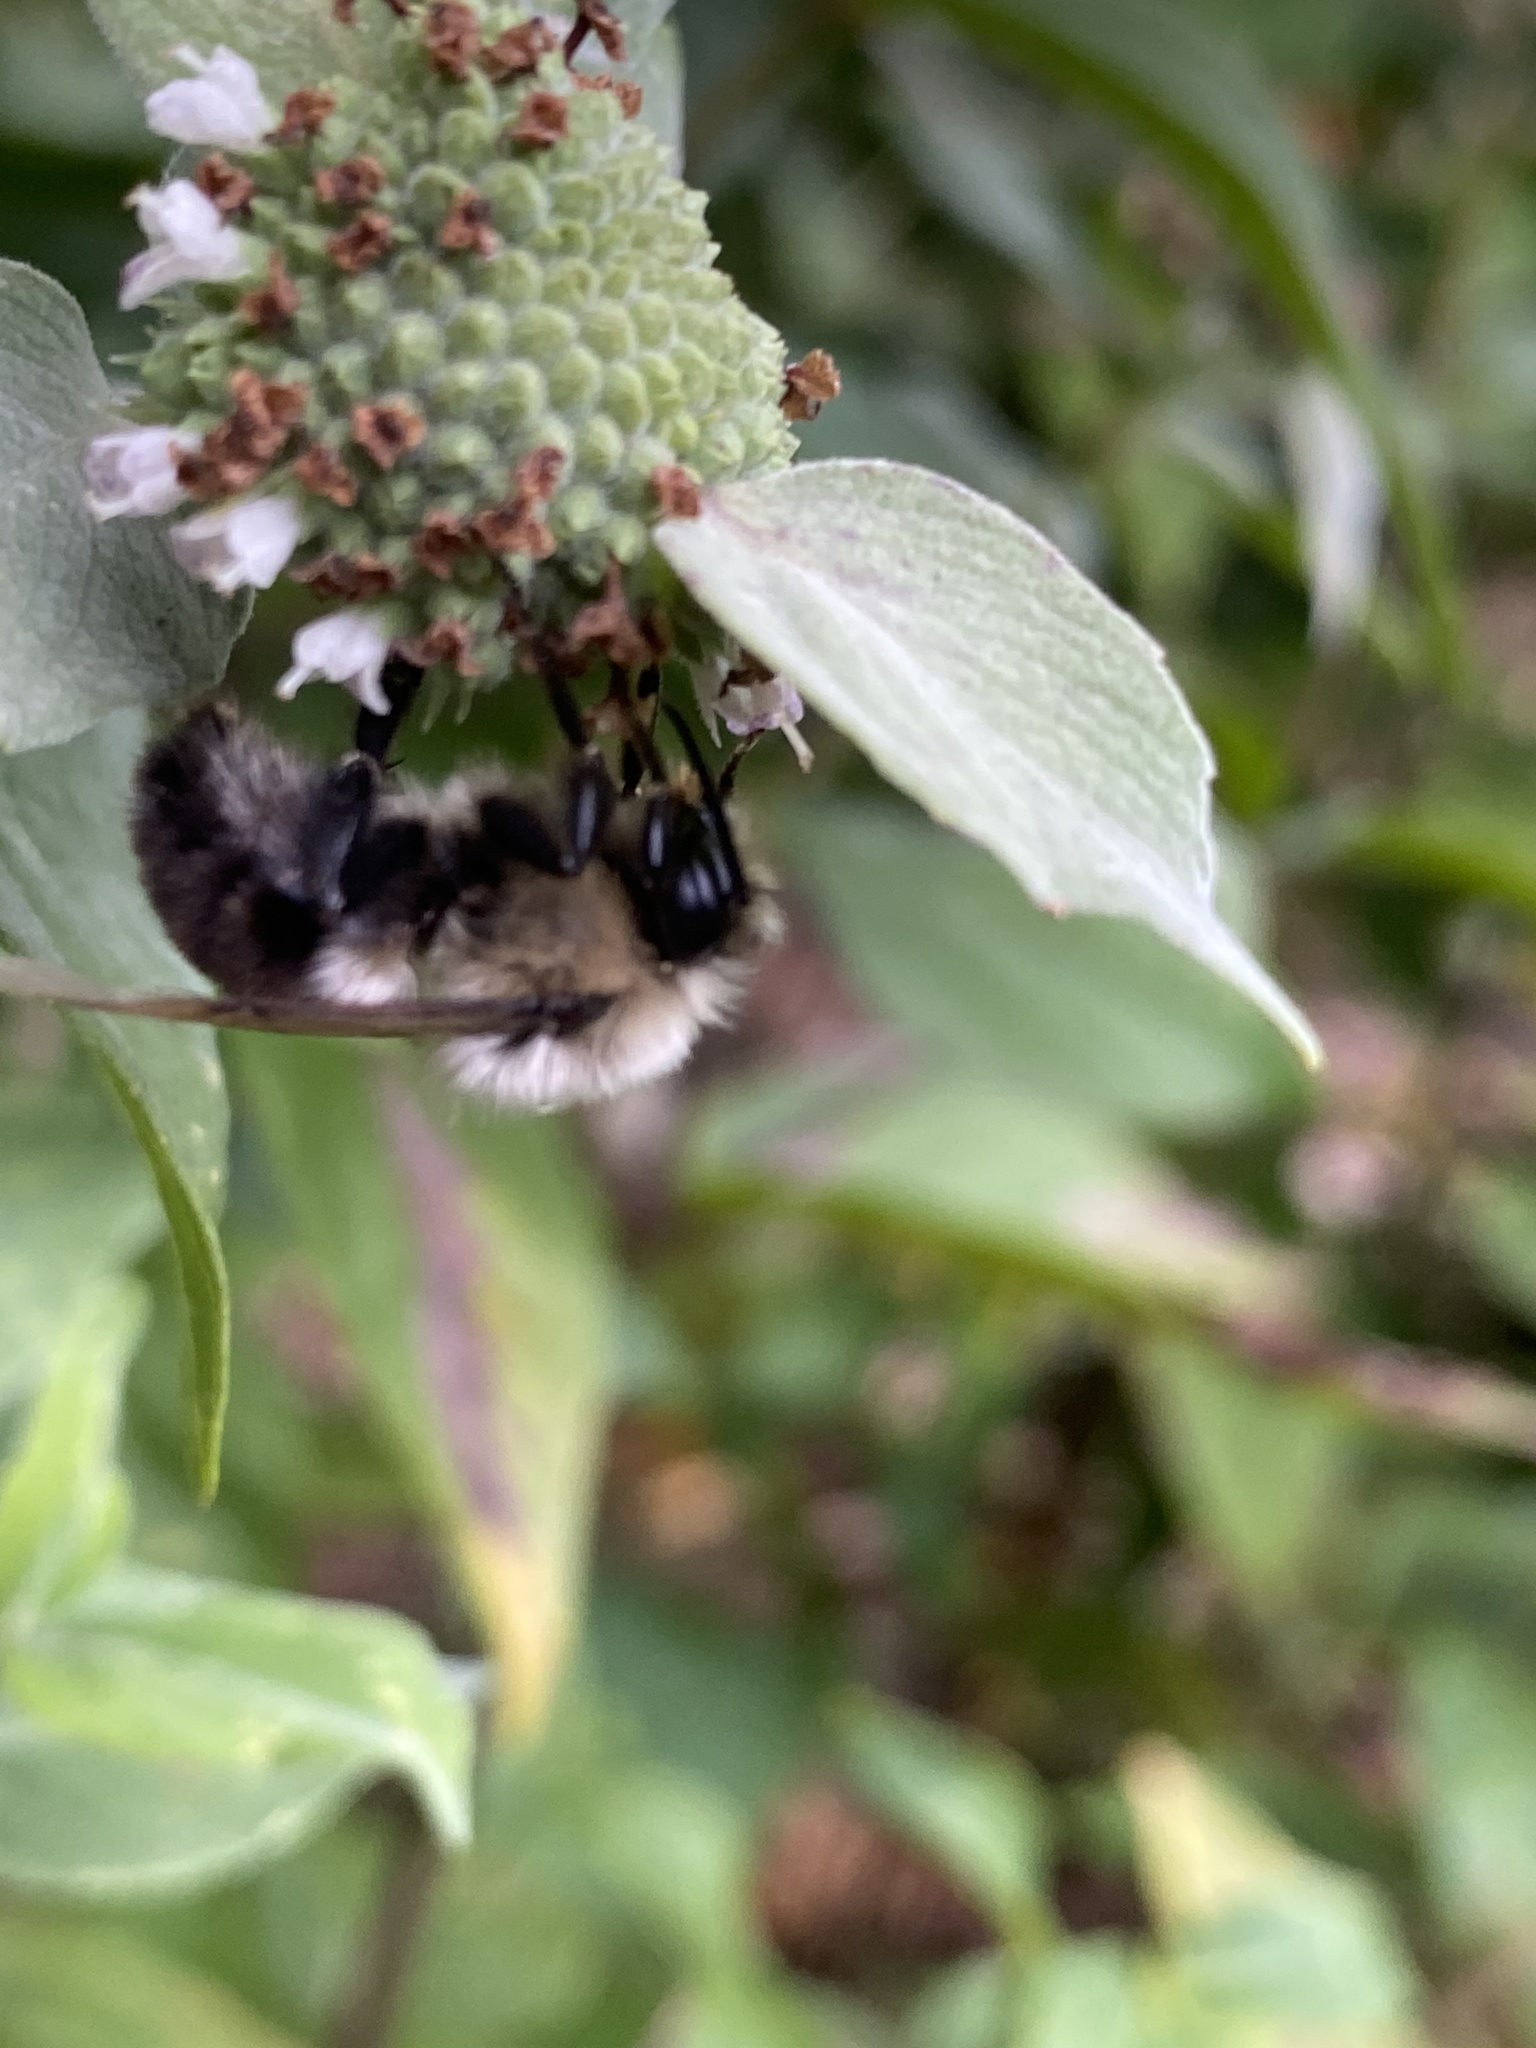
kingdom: Animalia
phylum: Arthropoda
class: Insecta
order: Hymenoptera
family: Apidae
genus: Bombus
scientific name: Bombus impatiens
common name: Common eastern bumble bee
